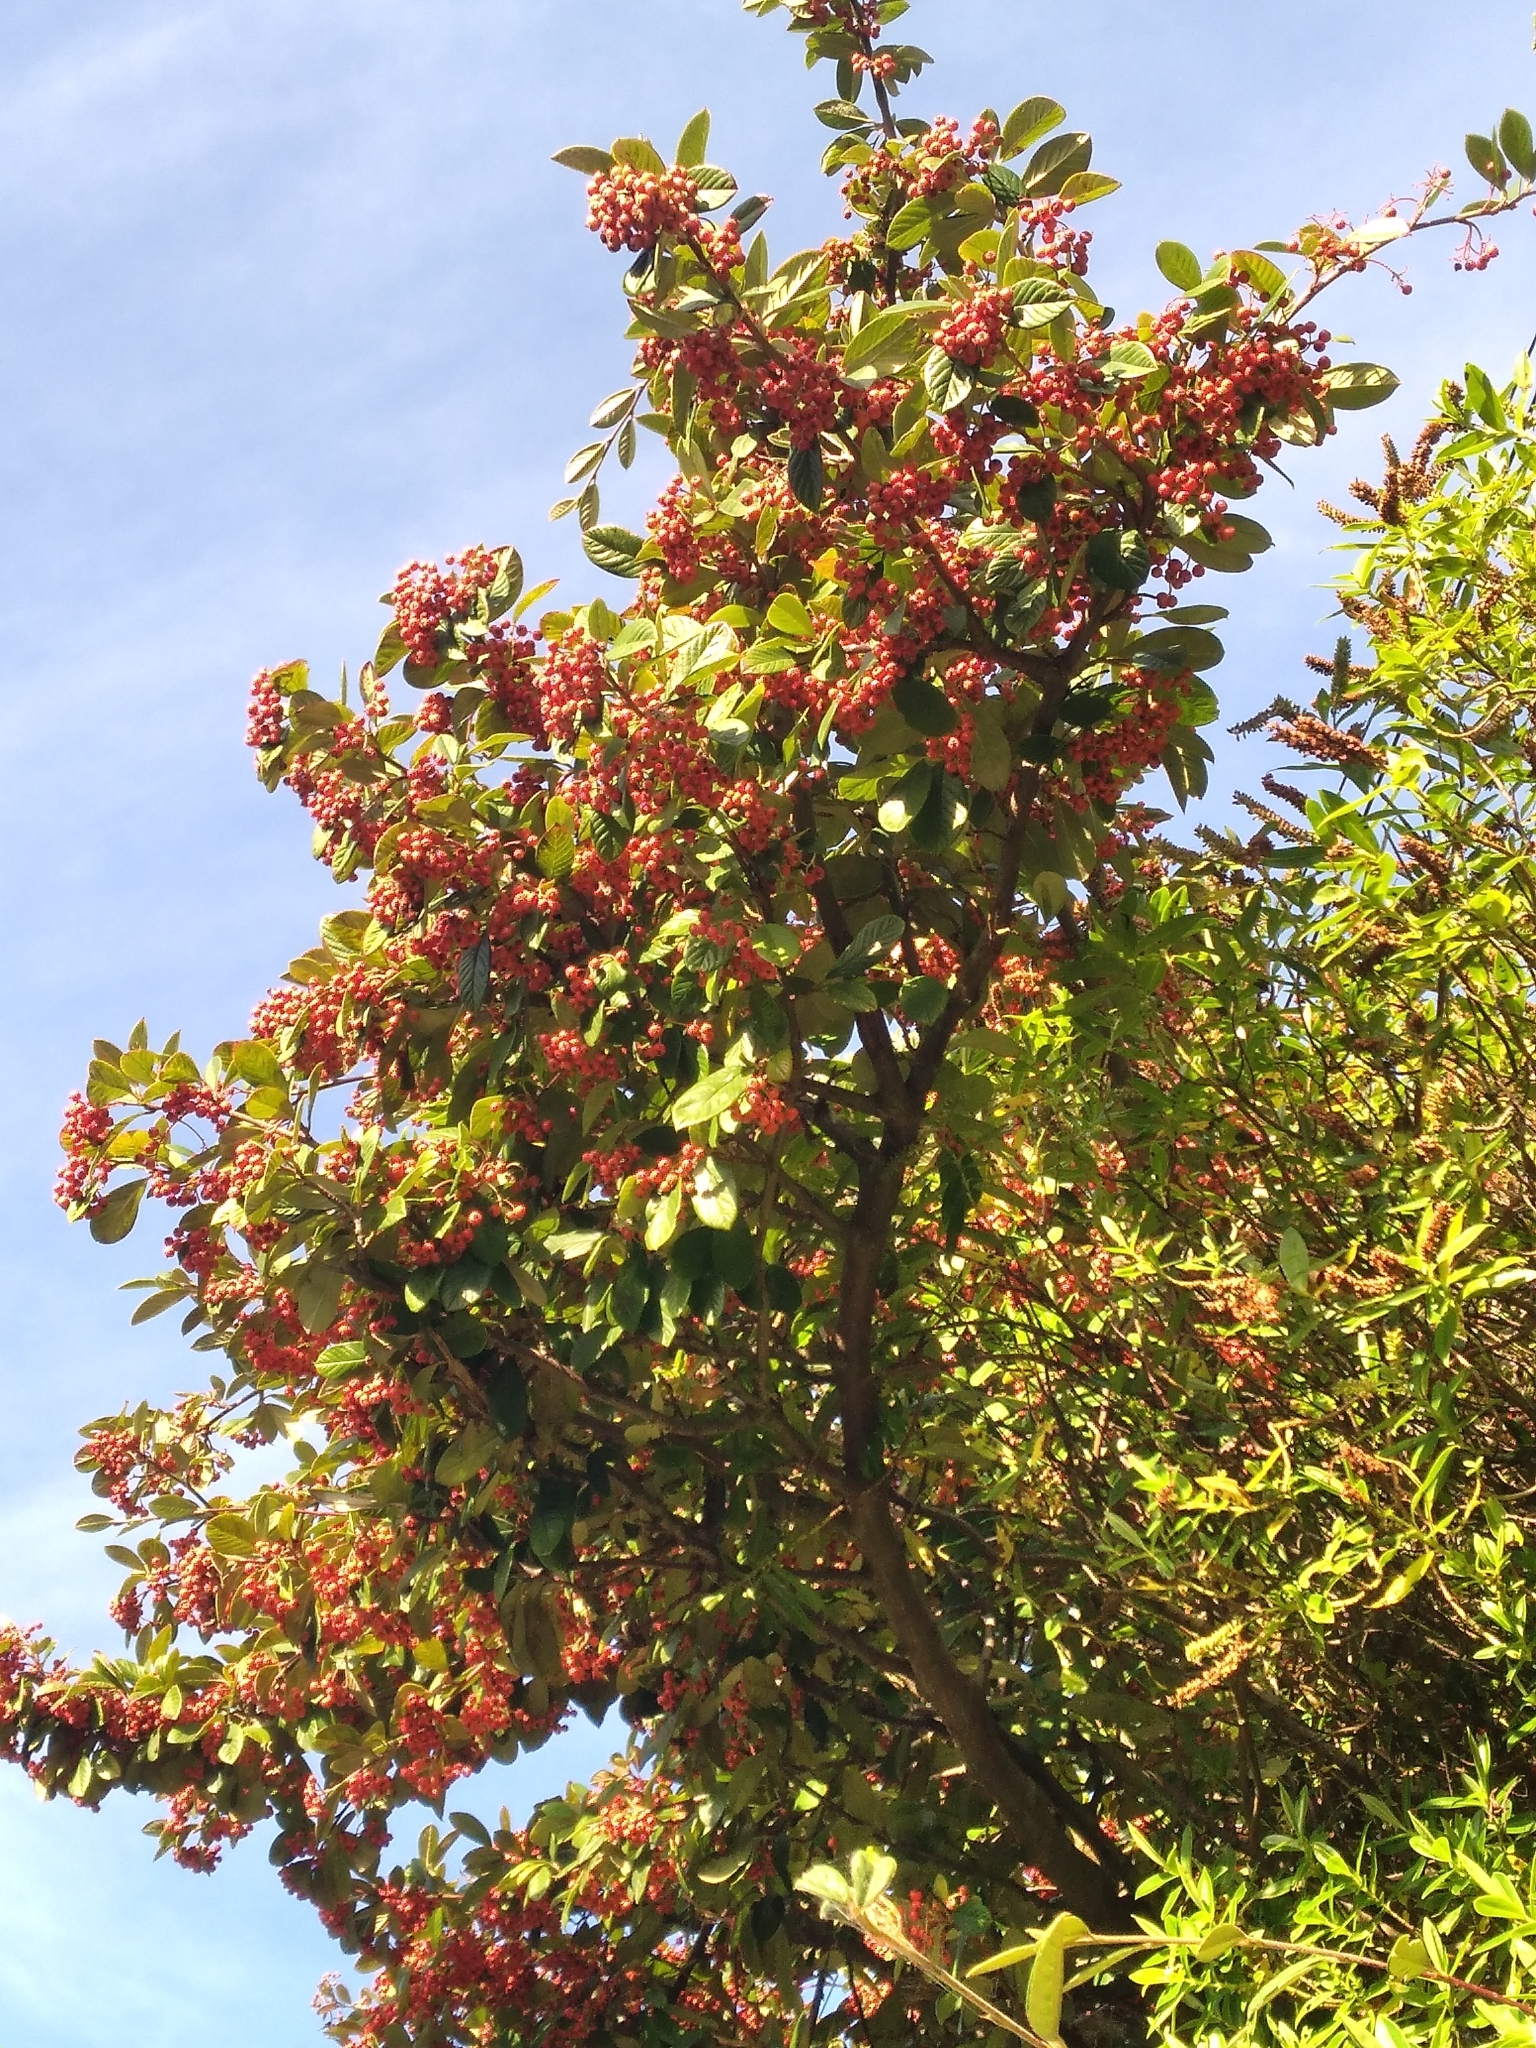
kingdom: Plantae
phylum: Tracheophyta
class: Magnoliopsida
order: Rosales
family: Rosaceae
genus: Cotoneaster
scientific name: Cotoneaster coriaceus
